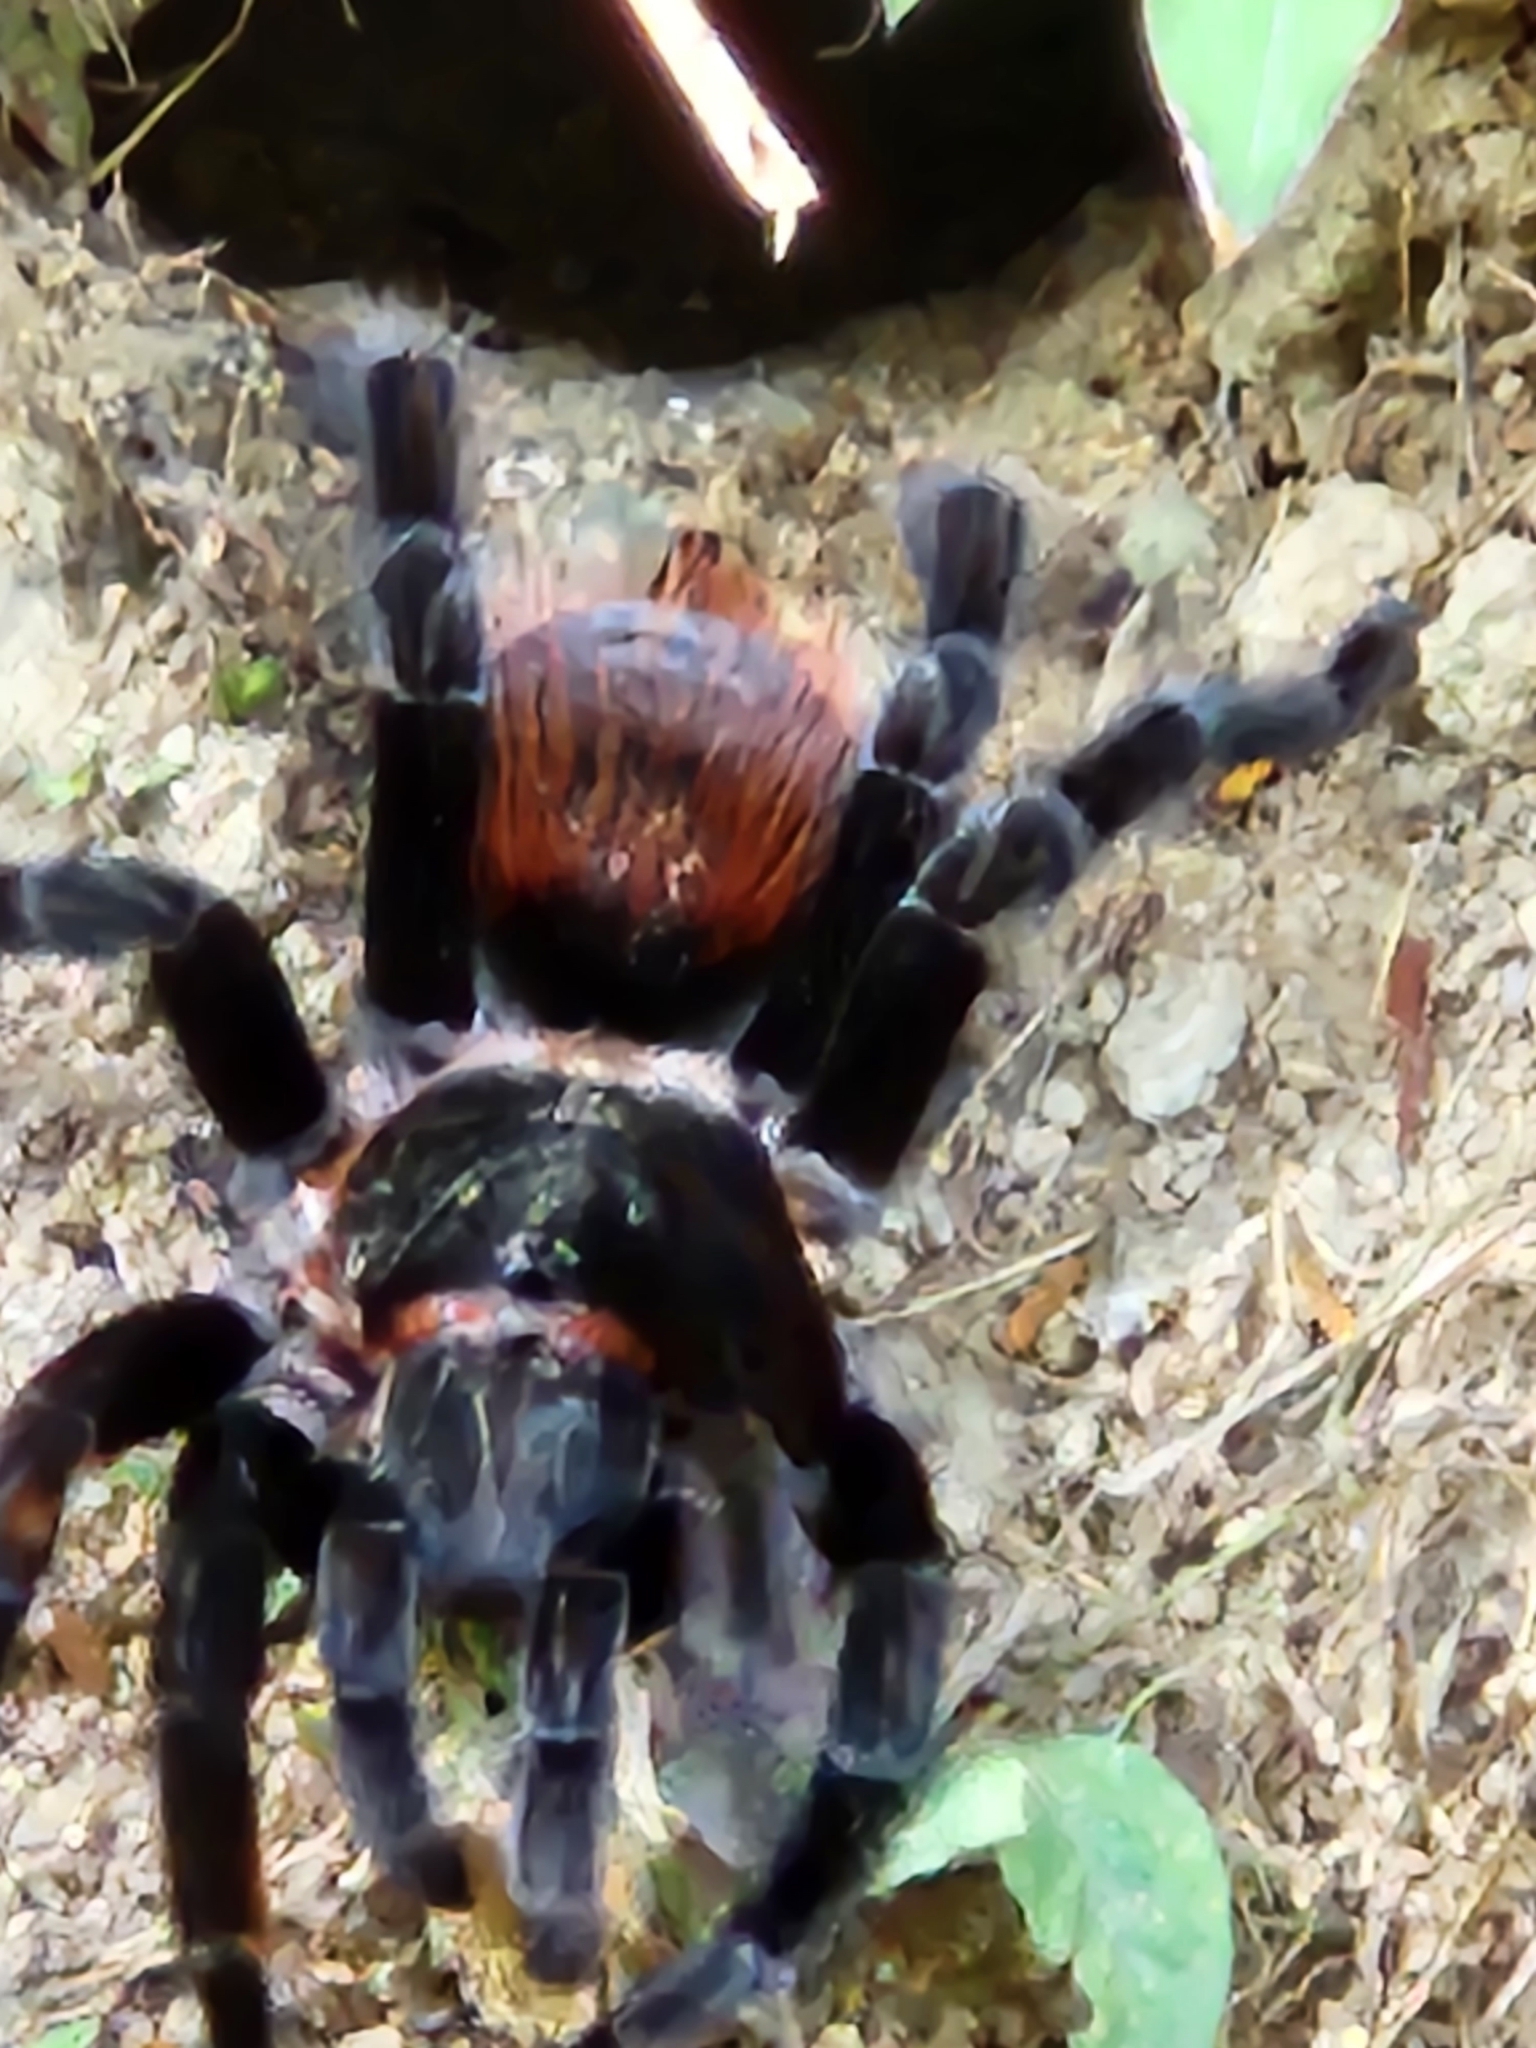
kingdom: Animalia
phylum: Arthropoda
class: Arachnida
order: Araneae
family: Theraphosidae
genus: Tliltocatl
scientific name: Tliltocatl vagans
